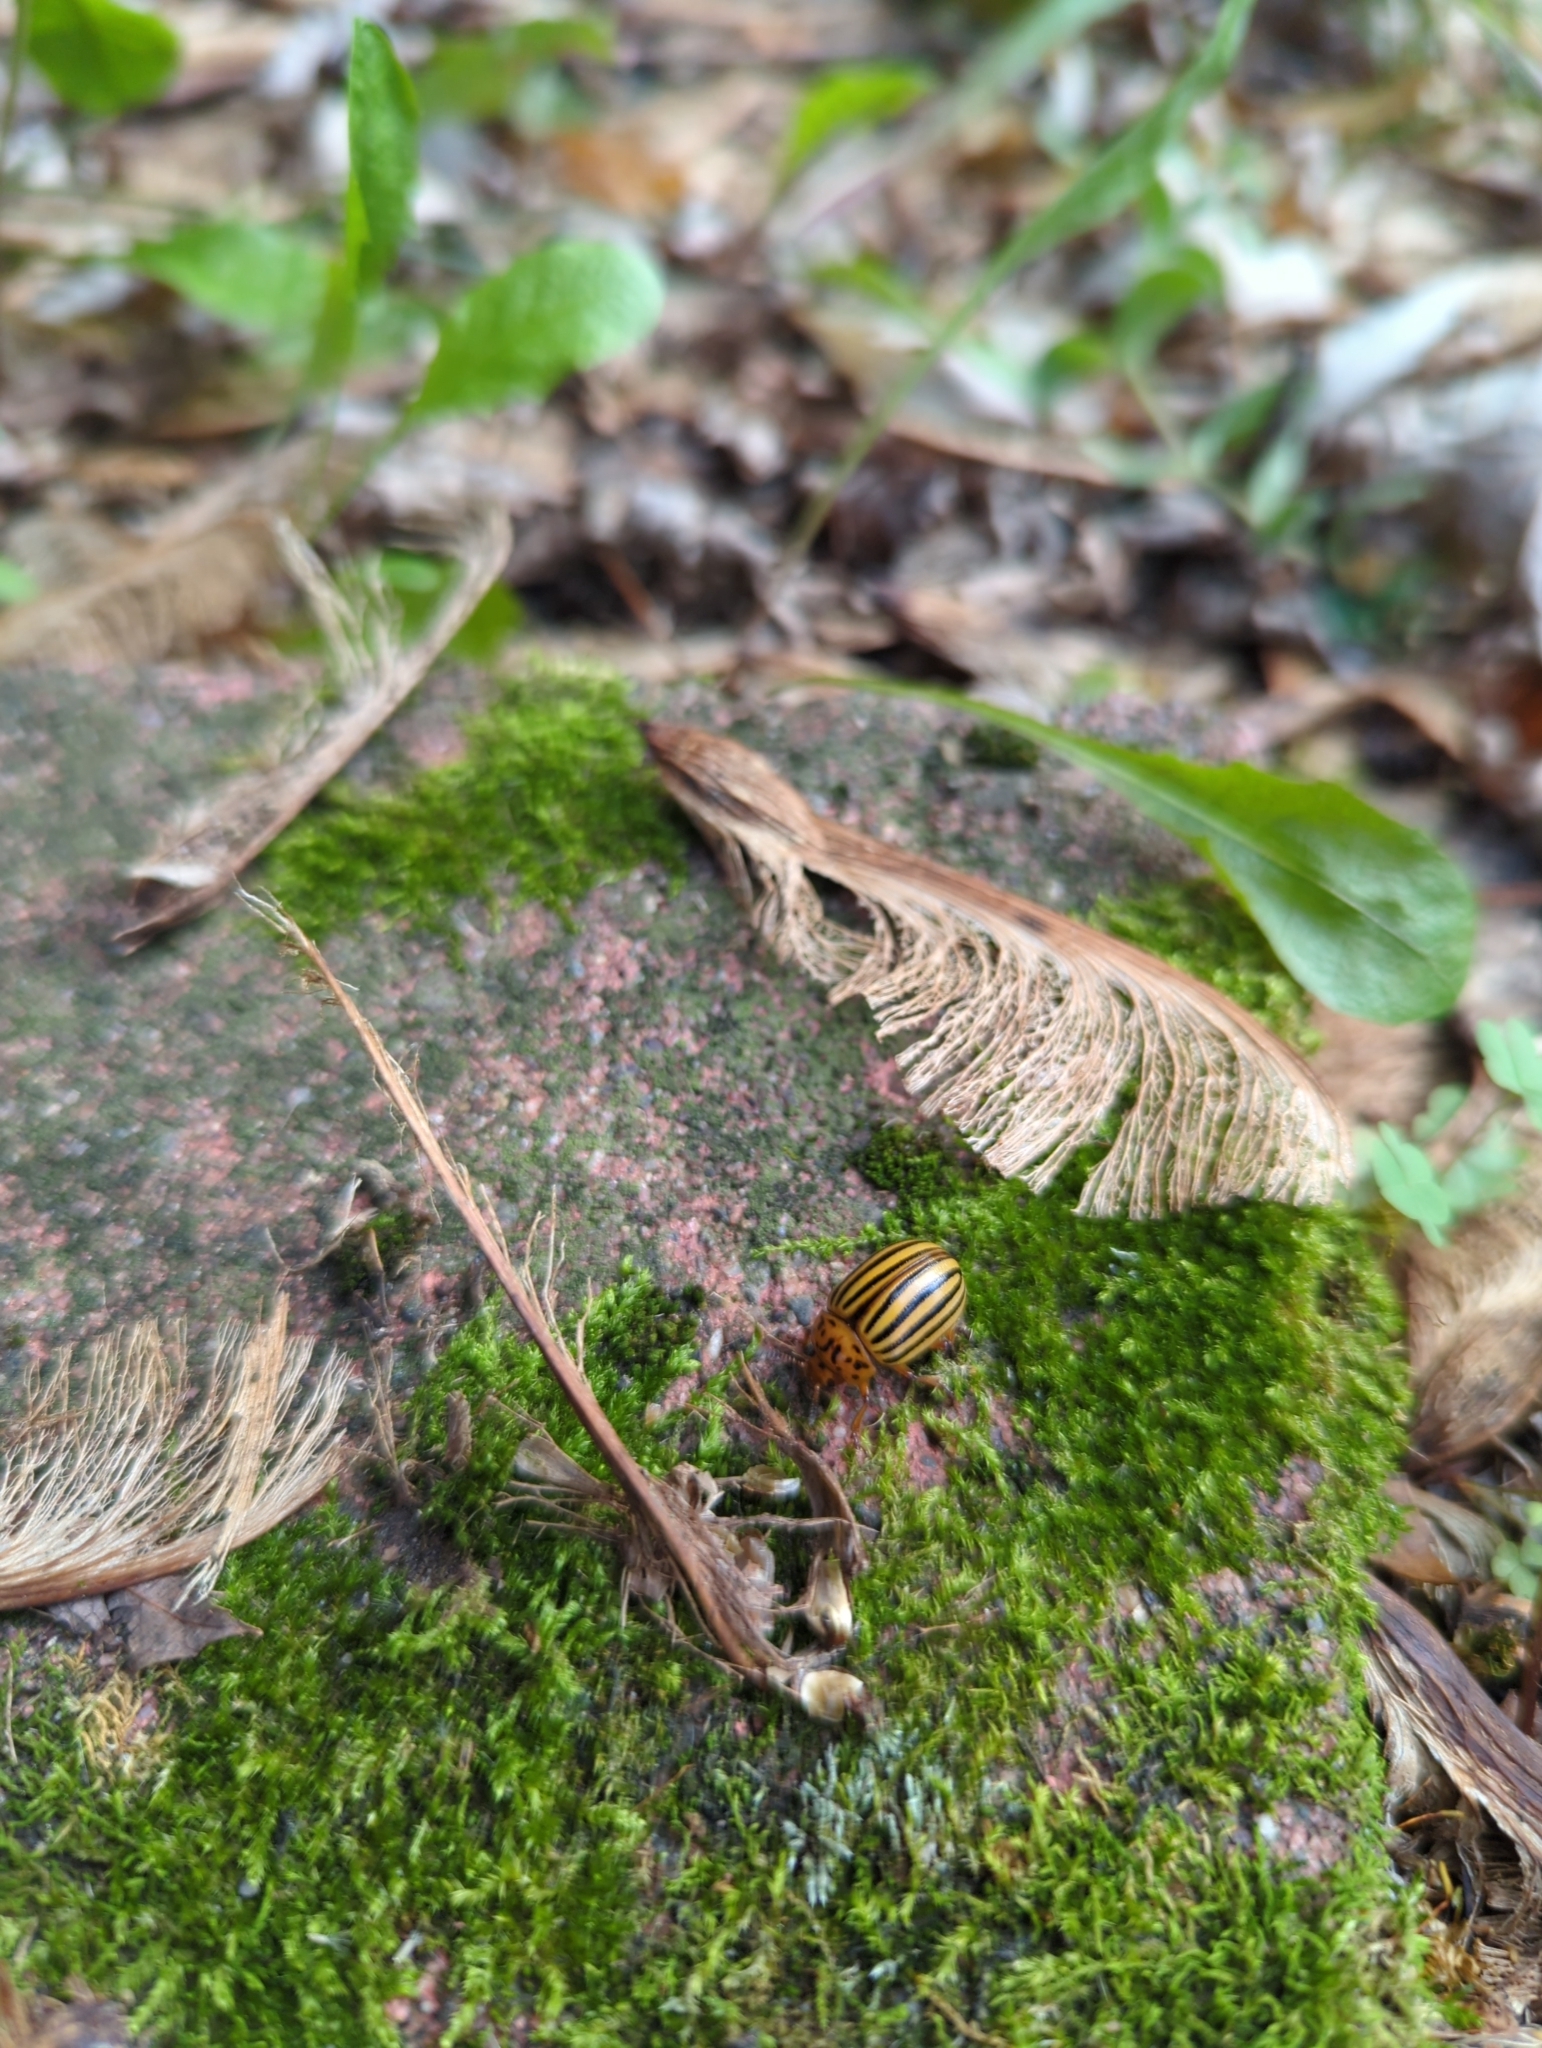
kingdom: Animalia
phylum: Arthropoda
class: Insecta
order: Coleoptera
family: Chrysomelidae
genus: Leptinotarsa
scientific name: Leptinotarsa decemlineata
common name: Colorado potato beetle
